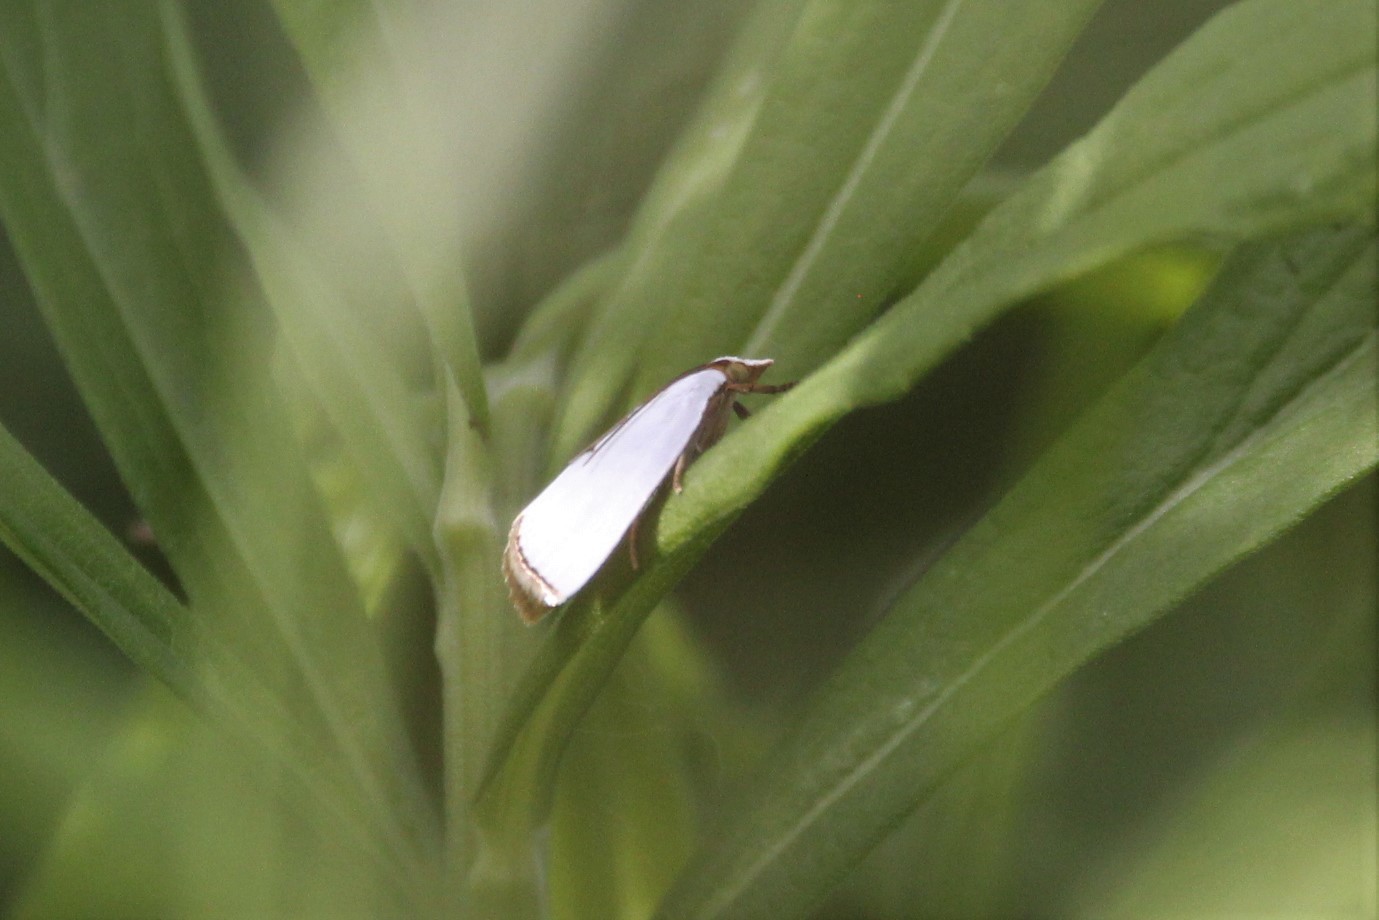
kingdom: Animalia
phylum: Arthropoda
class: Insecta
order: Lepidoptera
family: Crambidae
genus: Argyria
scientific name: Argyria nivalis
